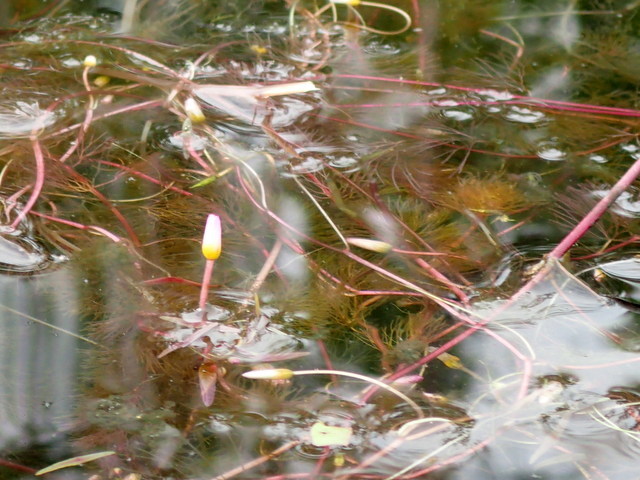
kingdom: Plantae
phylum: Tracheophyta
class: Magnoliopsida
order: Nymphaeales
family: Cabombaceae
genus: Cabomba
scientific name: Cabomba caroliniana
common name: Fanwort
